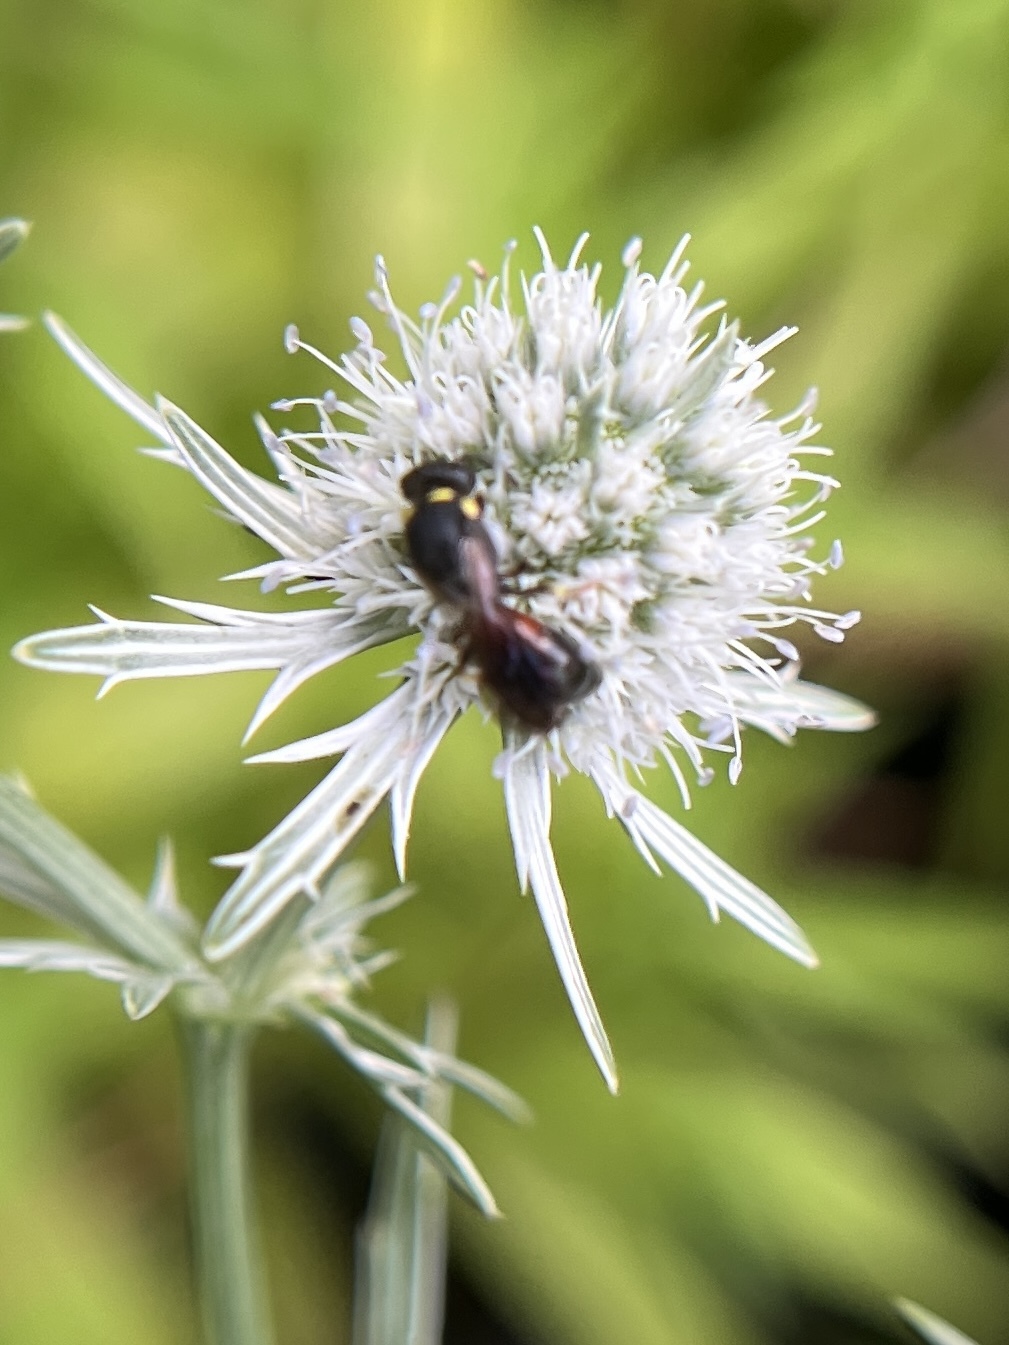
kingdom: Animalia
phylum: Arthropoda
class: Insecta
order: Hymenoptera
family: Colletidae
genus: Hylaeus
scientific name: Hylaeus ornatus
